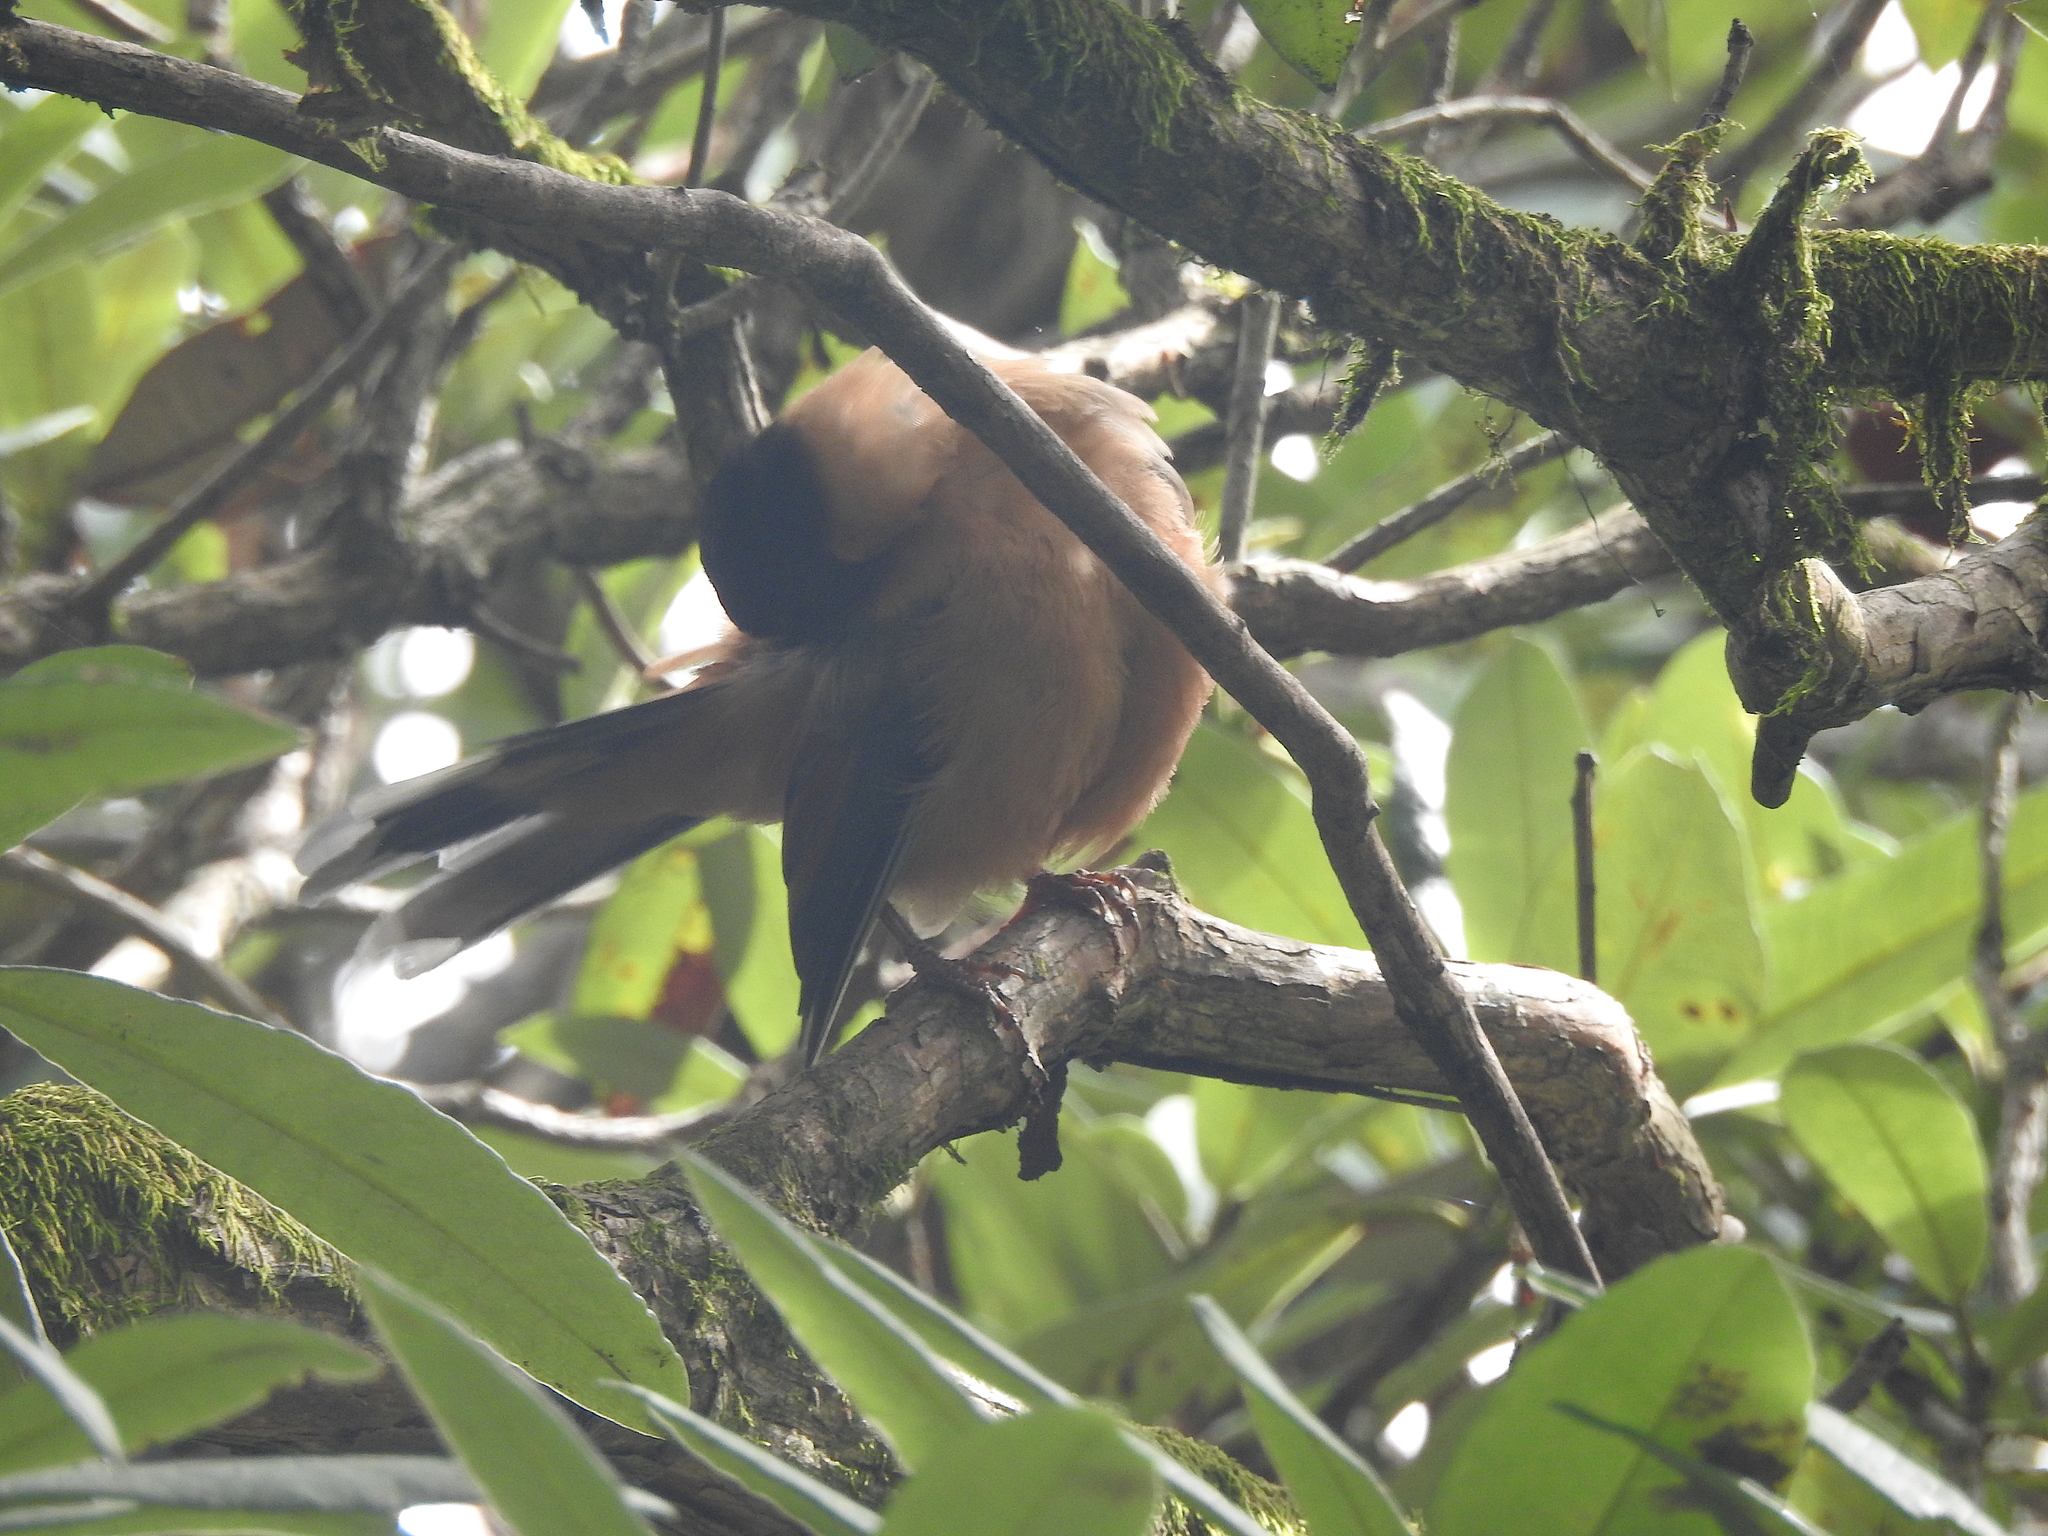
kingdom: Animalia
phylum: Chordata
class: Aves
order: Passeriformes
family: Leiothrichidae
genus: Heterophasia
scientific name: Heterophasia capistrata
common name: Rufous sibia
